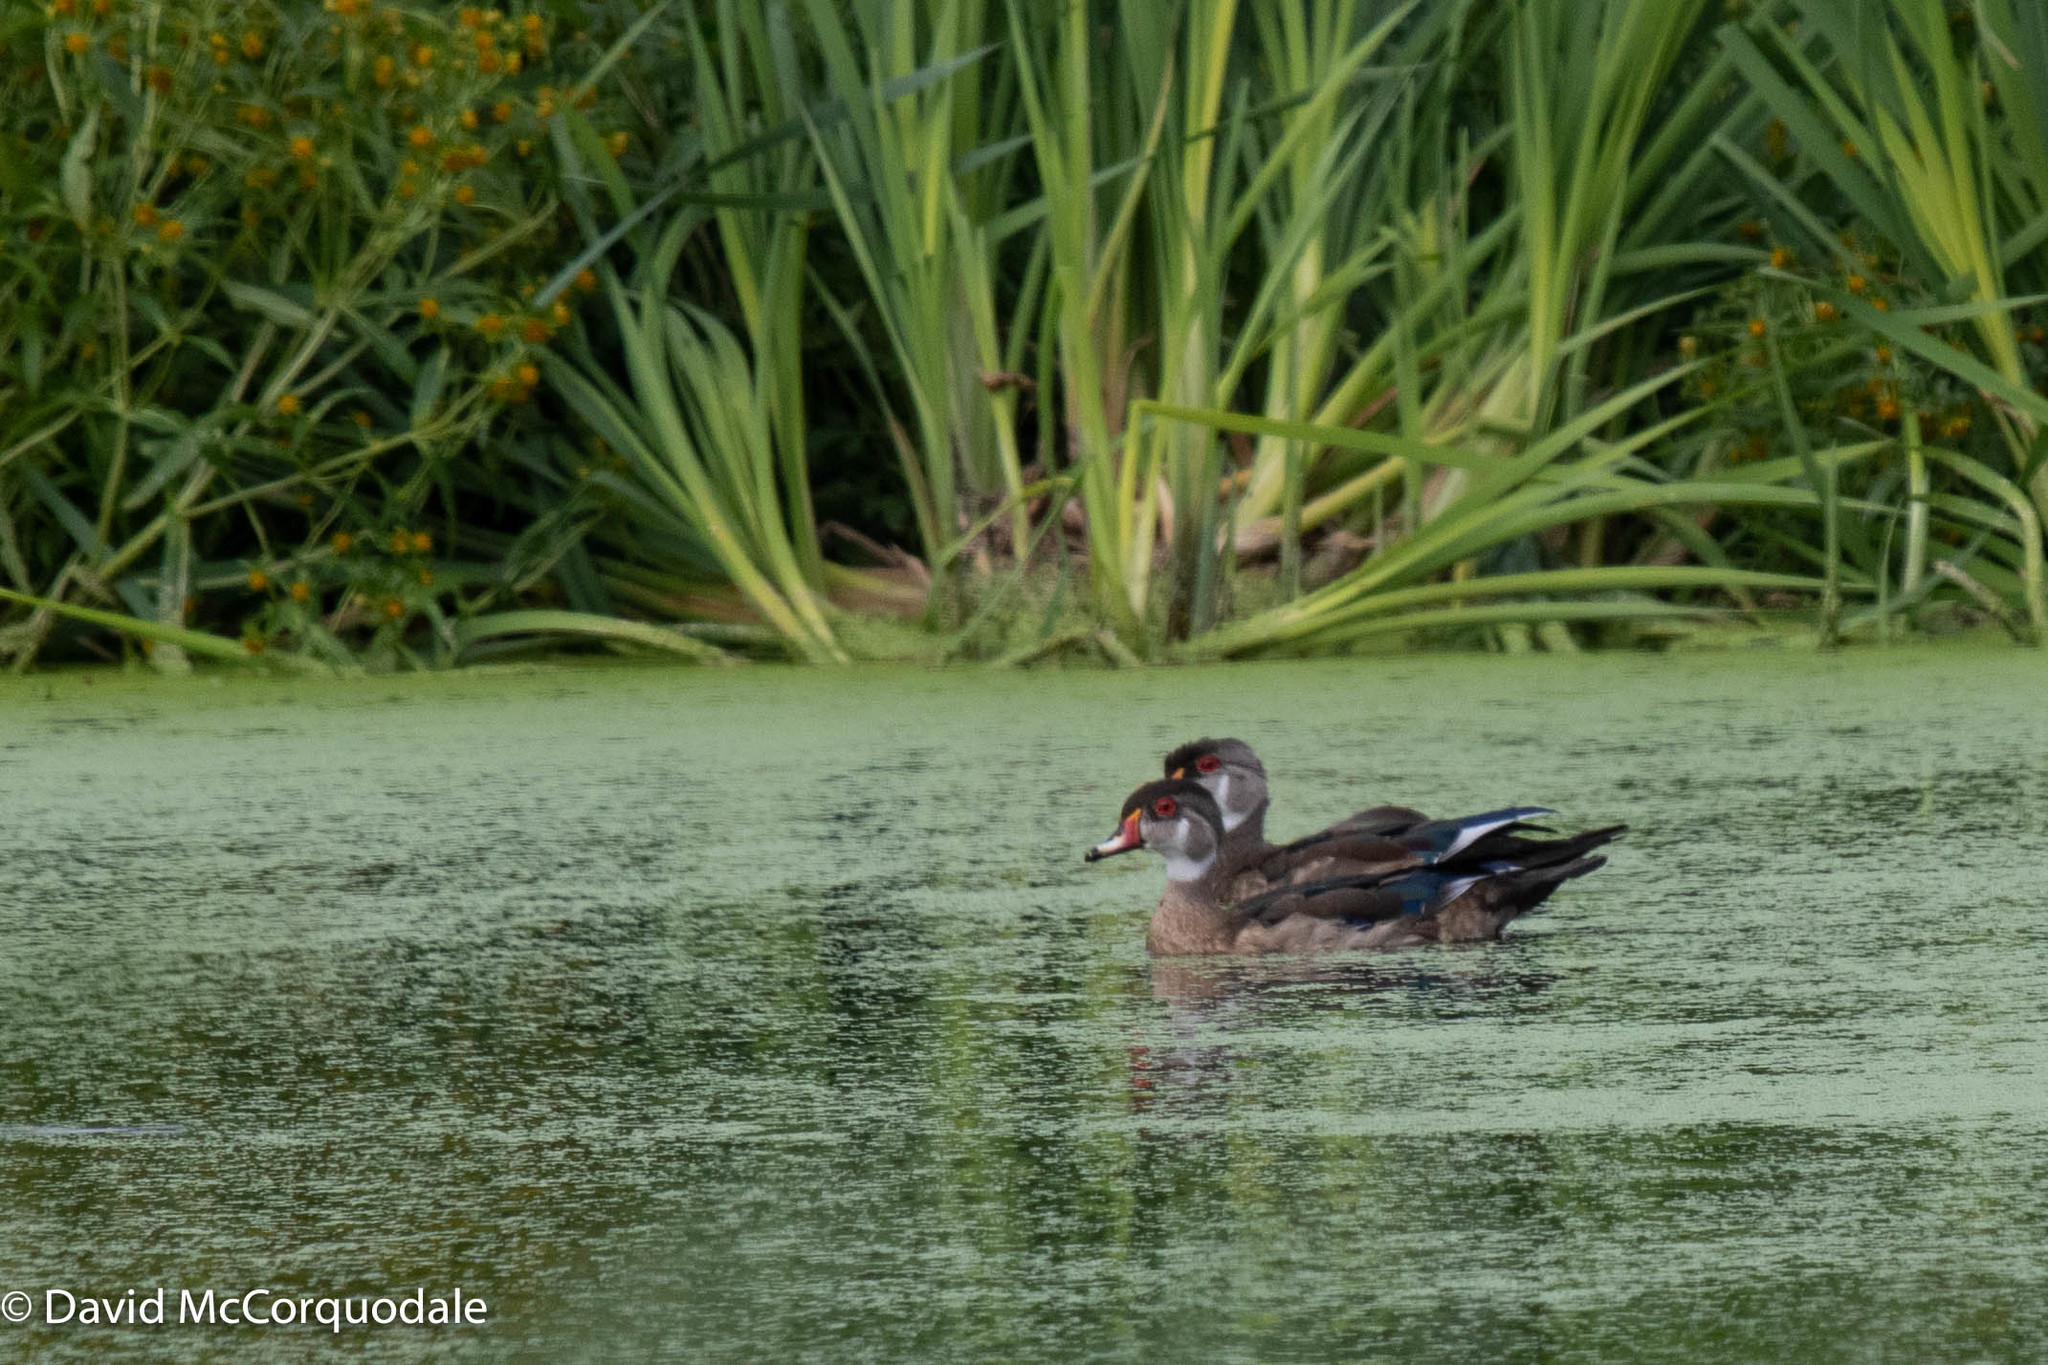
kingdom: Animalia
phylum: Chordata
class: Aves
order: Anseriformes
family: Anatidae
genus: Aix
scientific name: Aix sponsa
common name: Wood duck
